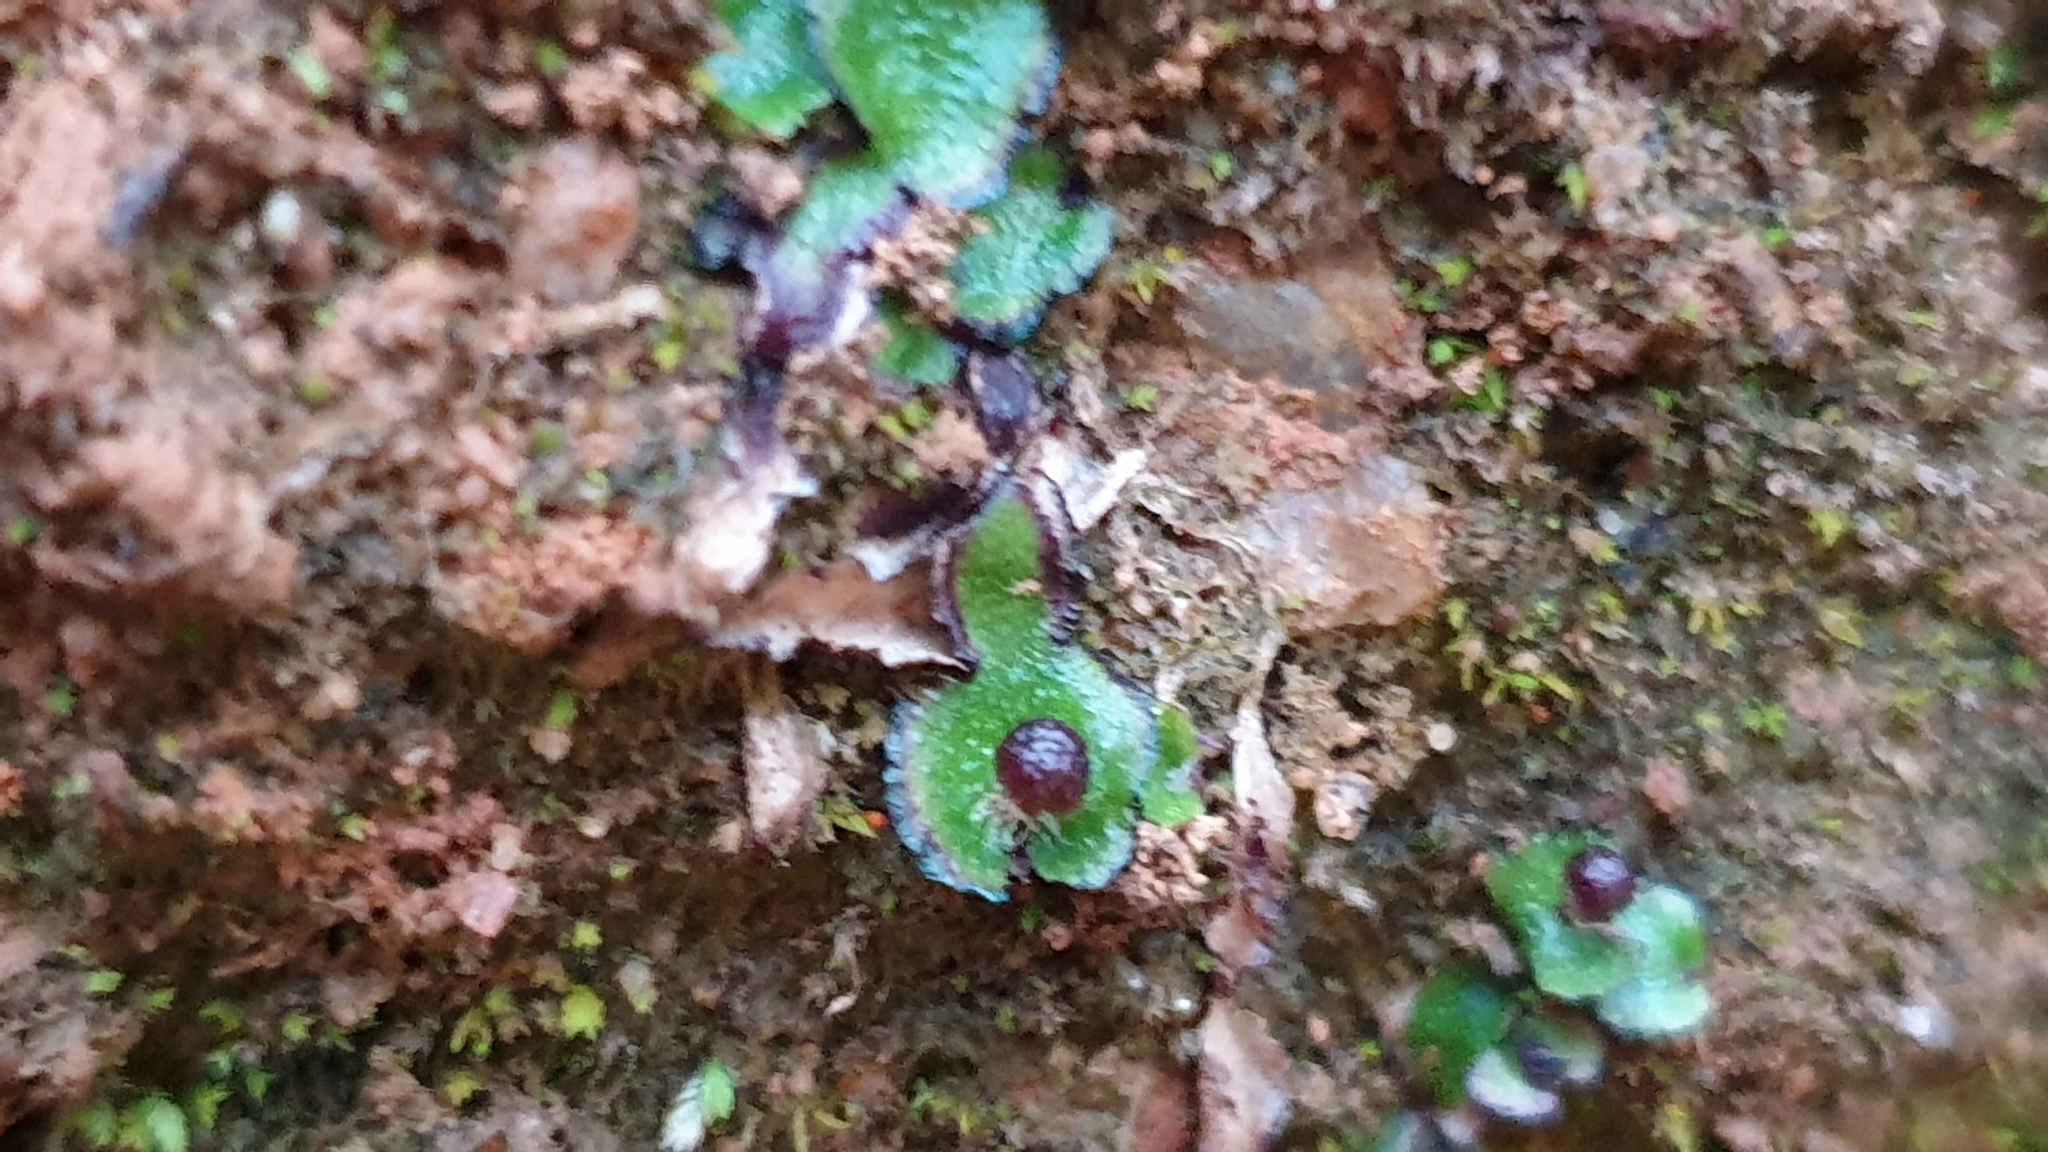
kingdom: Plantae
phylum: Marchantiophyta
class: Marchantiopsida
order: Marchantiales
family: Aytoniaceae
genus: Asterella
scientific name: Asterella drummondii
